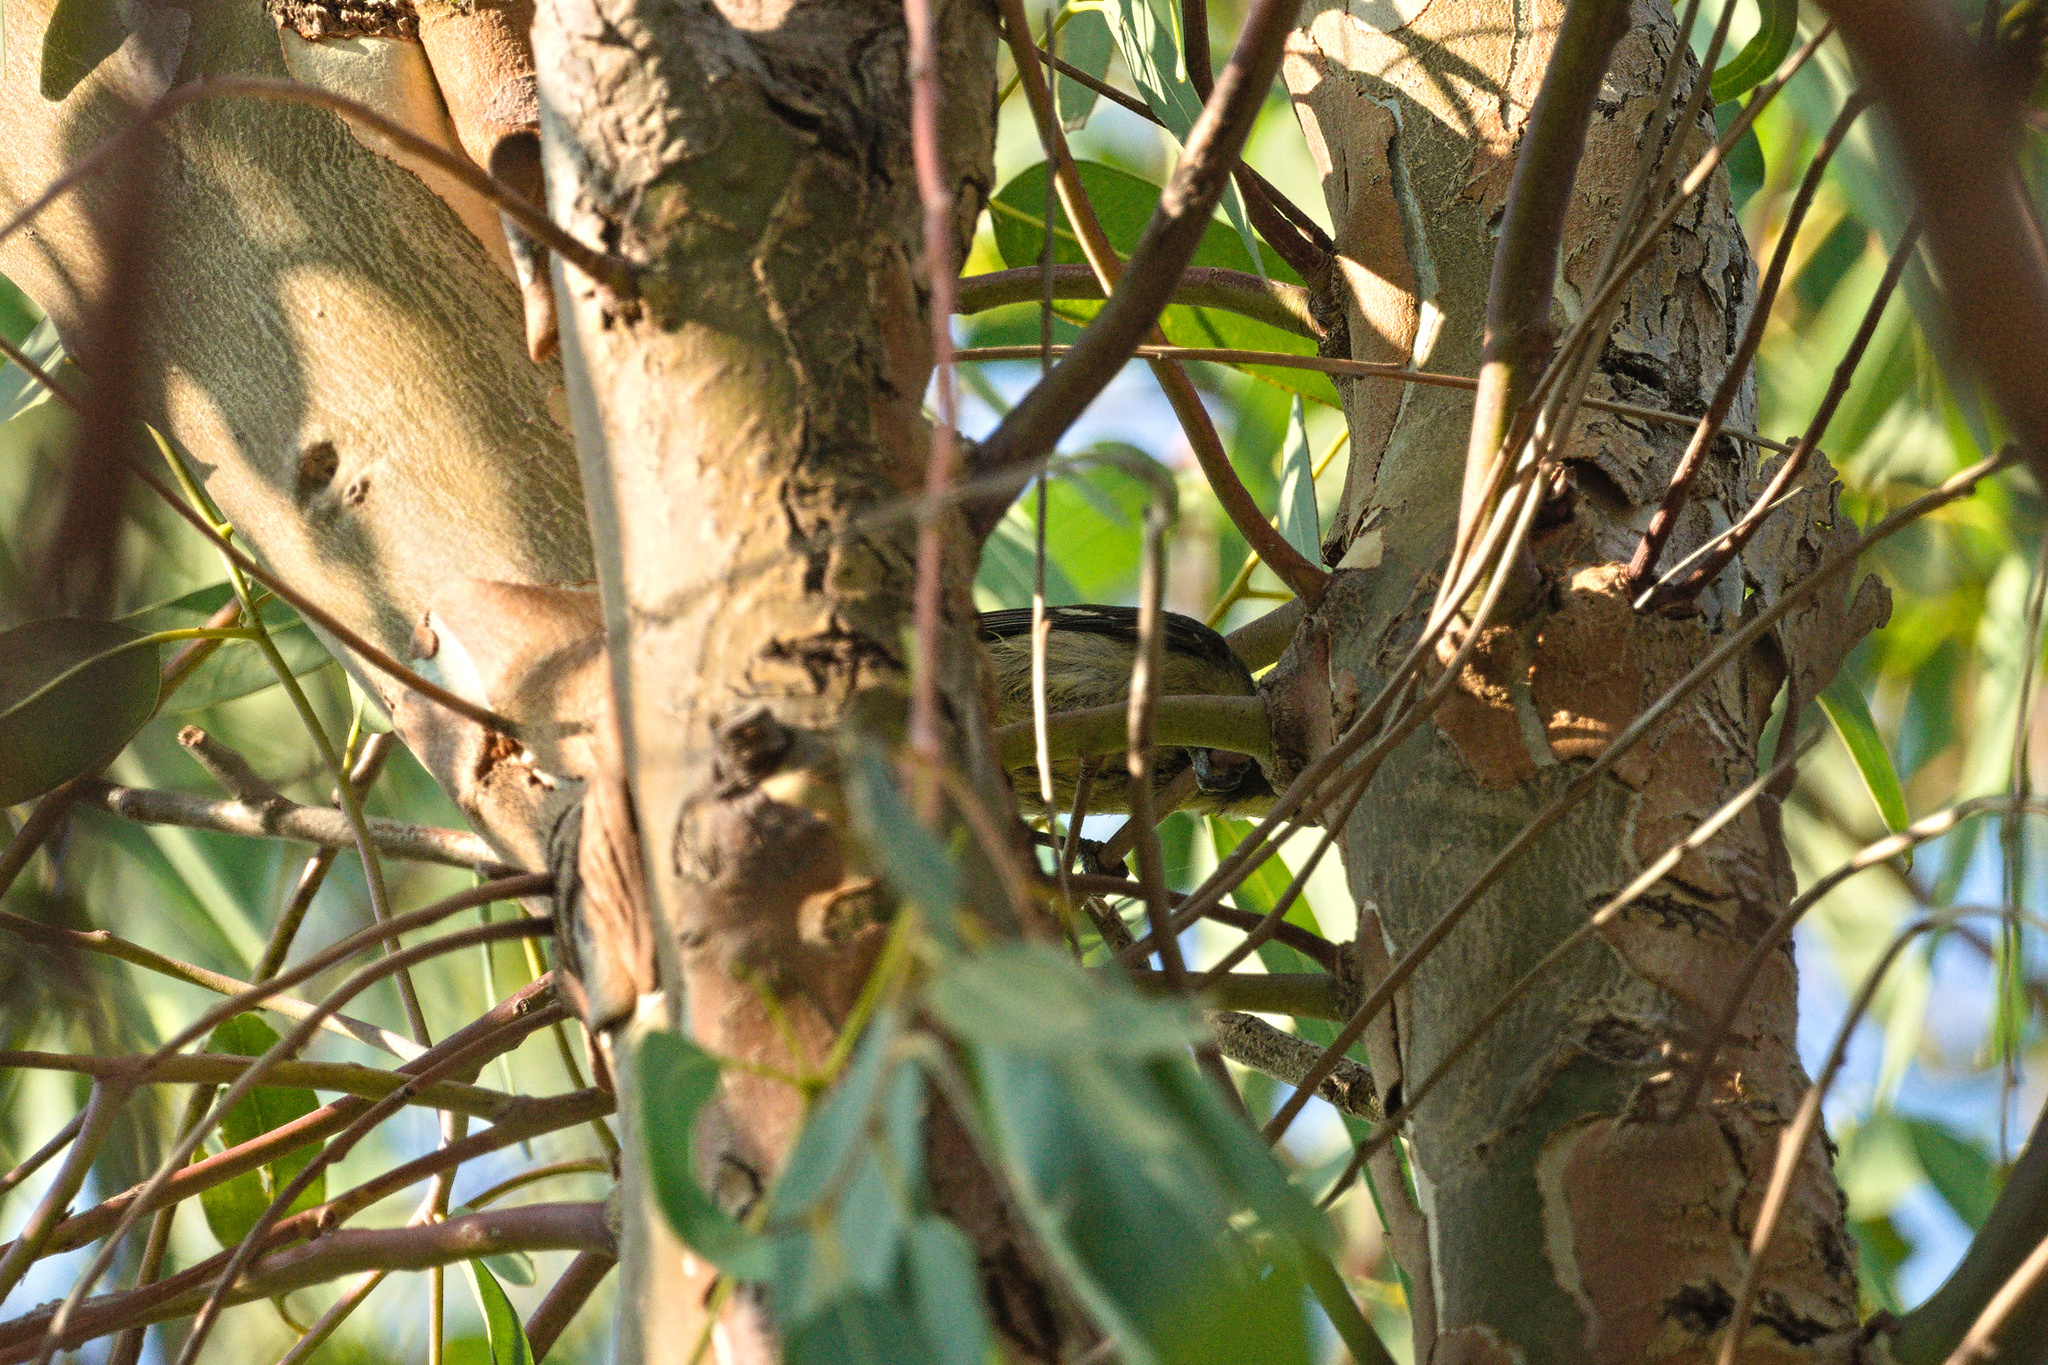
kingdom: Animalia
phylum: Chordata
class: Aves
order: Passeriformes
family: Paridae
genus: Parus
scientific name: Parus major
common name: Great tit
